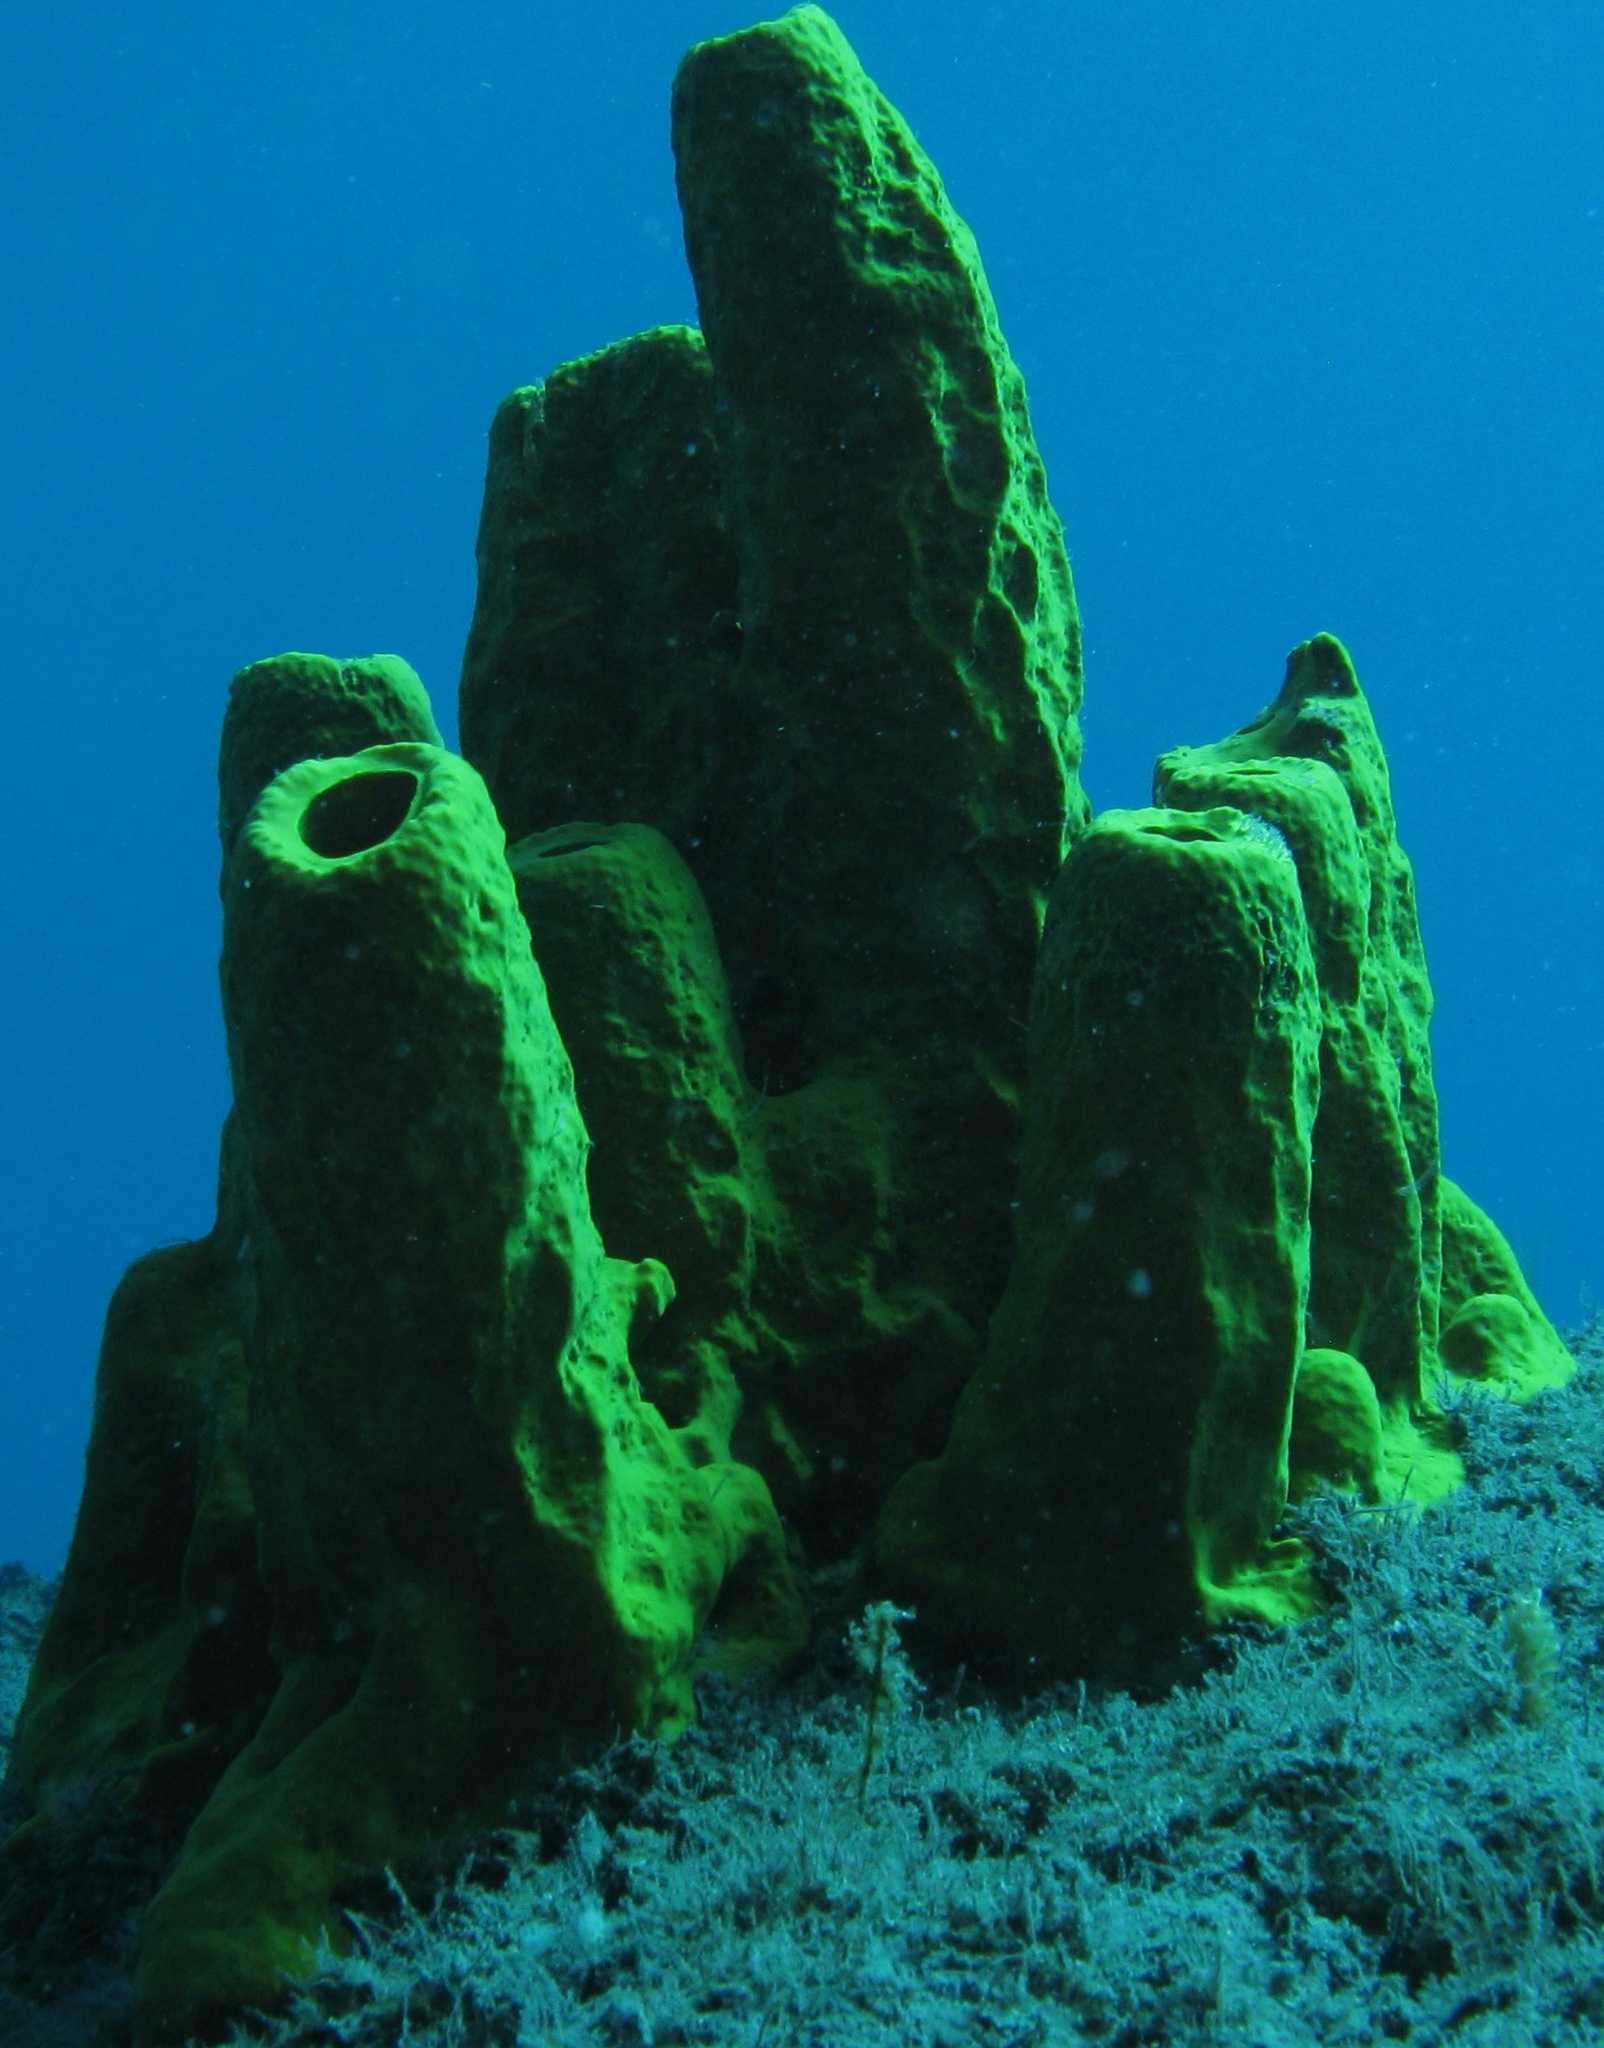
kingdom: Animalia
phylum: Porifera
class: Demospongiae
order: Verongiida
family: Aplysinidae
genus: Aplysina
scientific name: Aplysina fistularis
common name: Candle sponge
